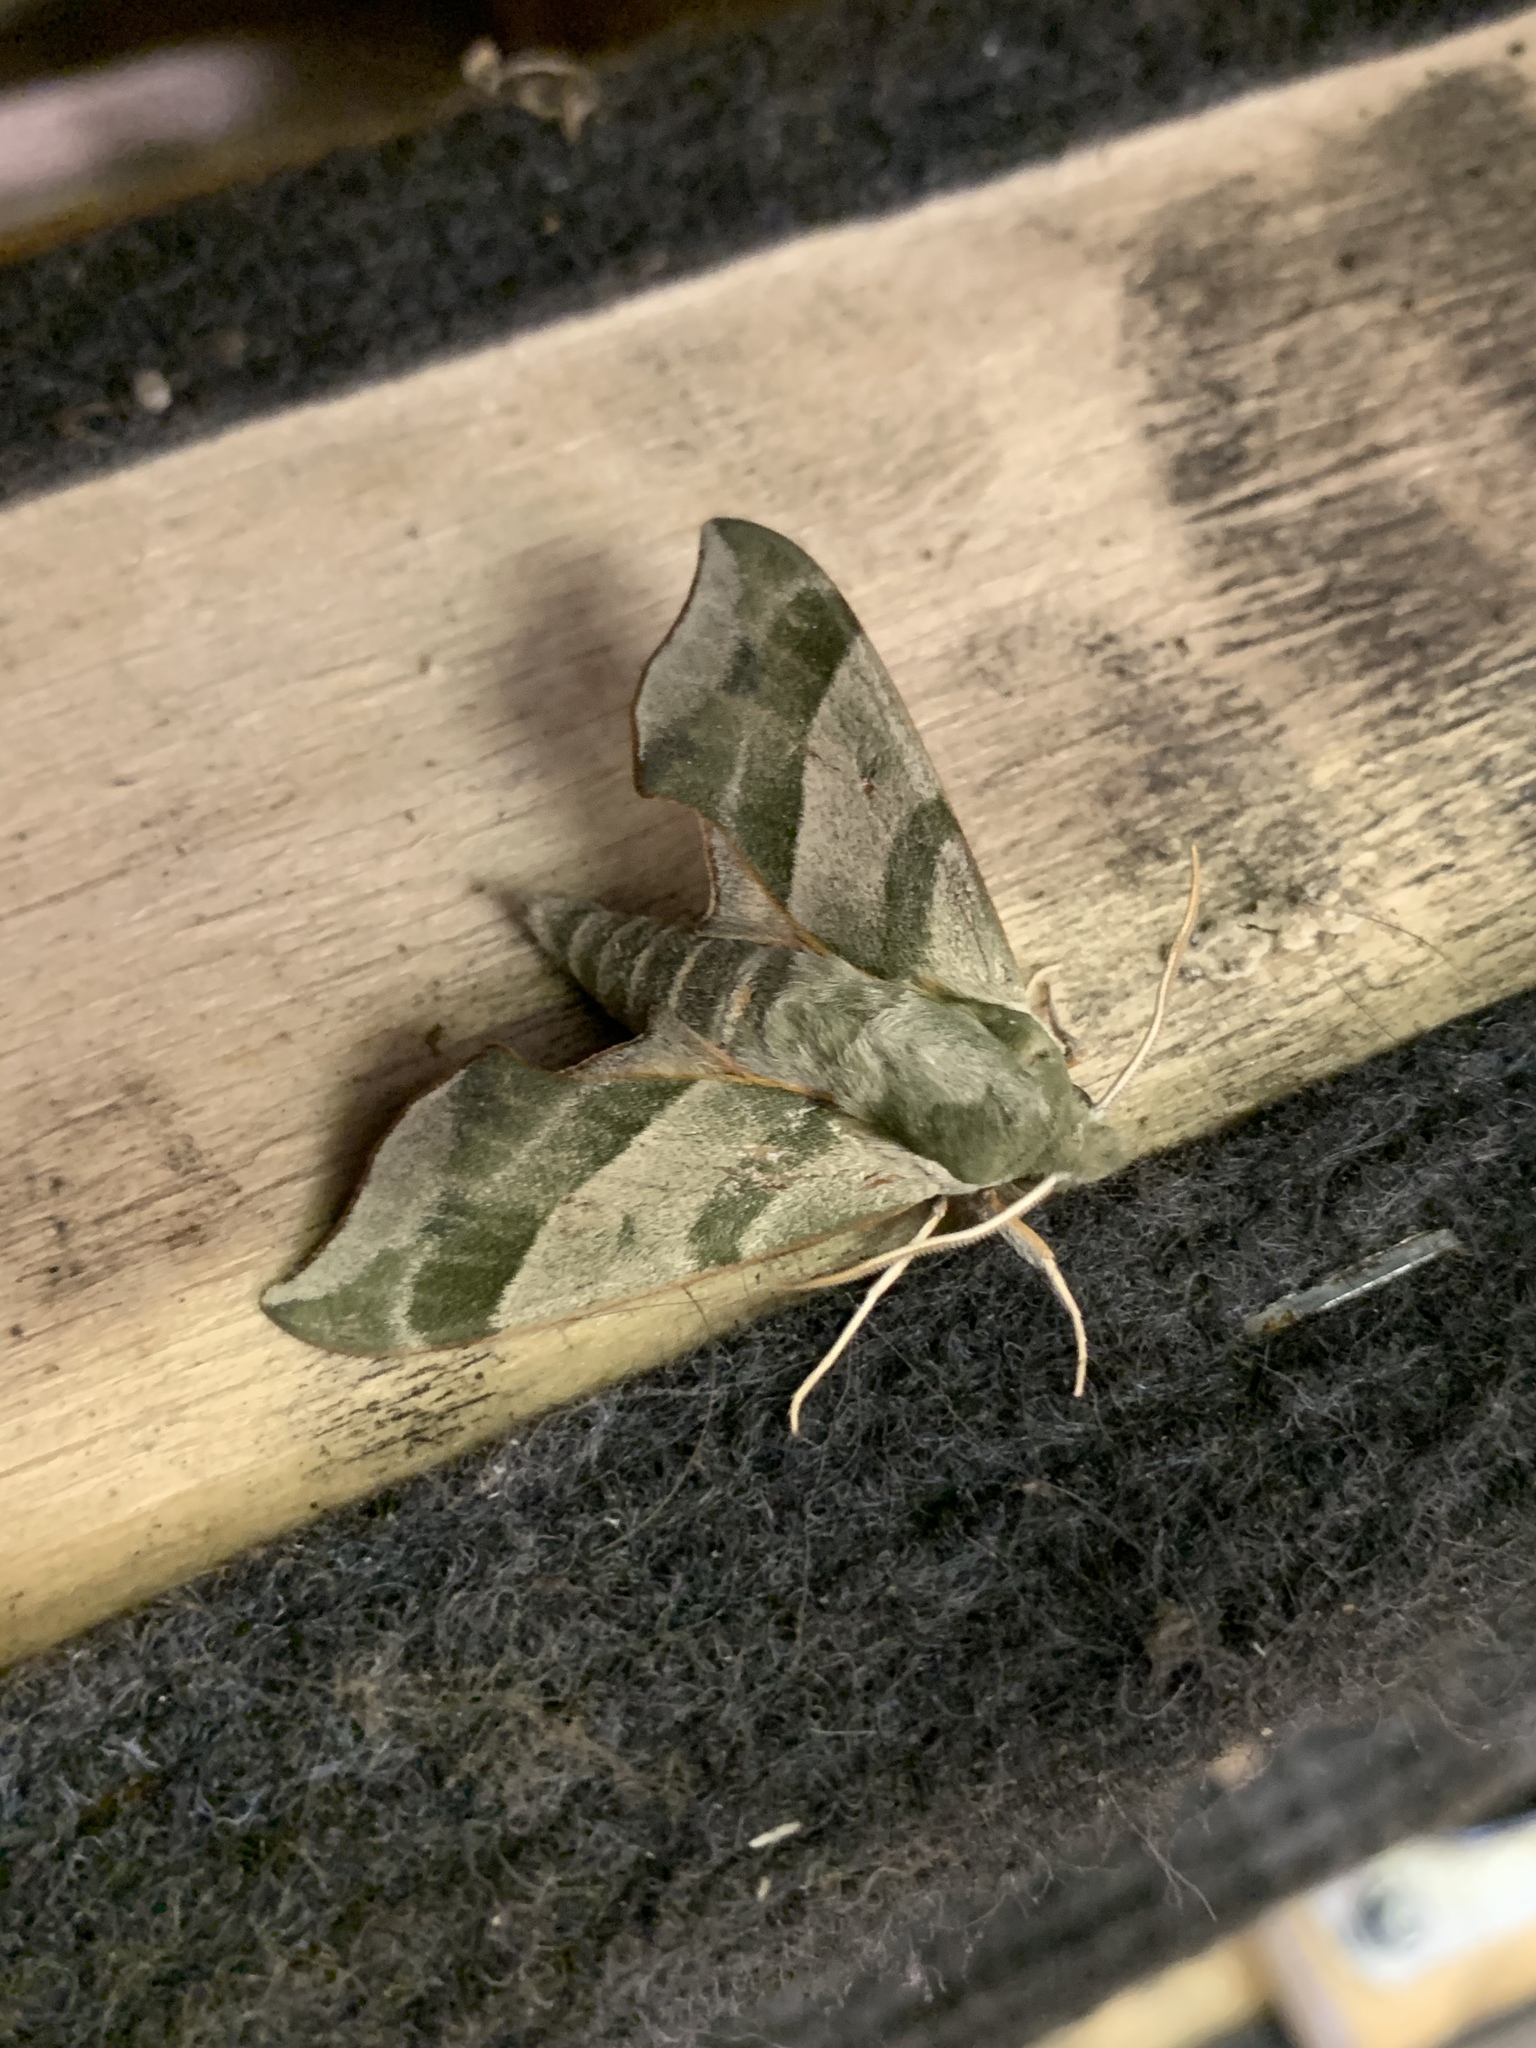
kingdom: Animalia
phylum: Arthropoda
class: Insecta
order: Lepidoptera
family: Sphingidae
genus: Darapsa
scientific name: Darapsa myron
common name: Hog sphinx
